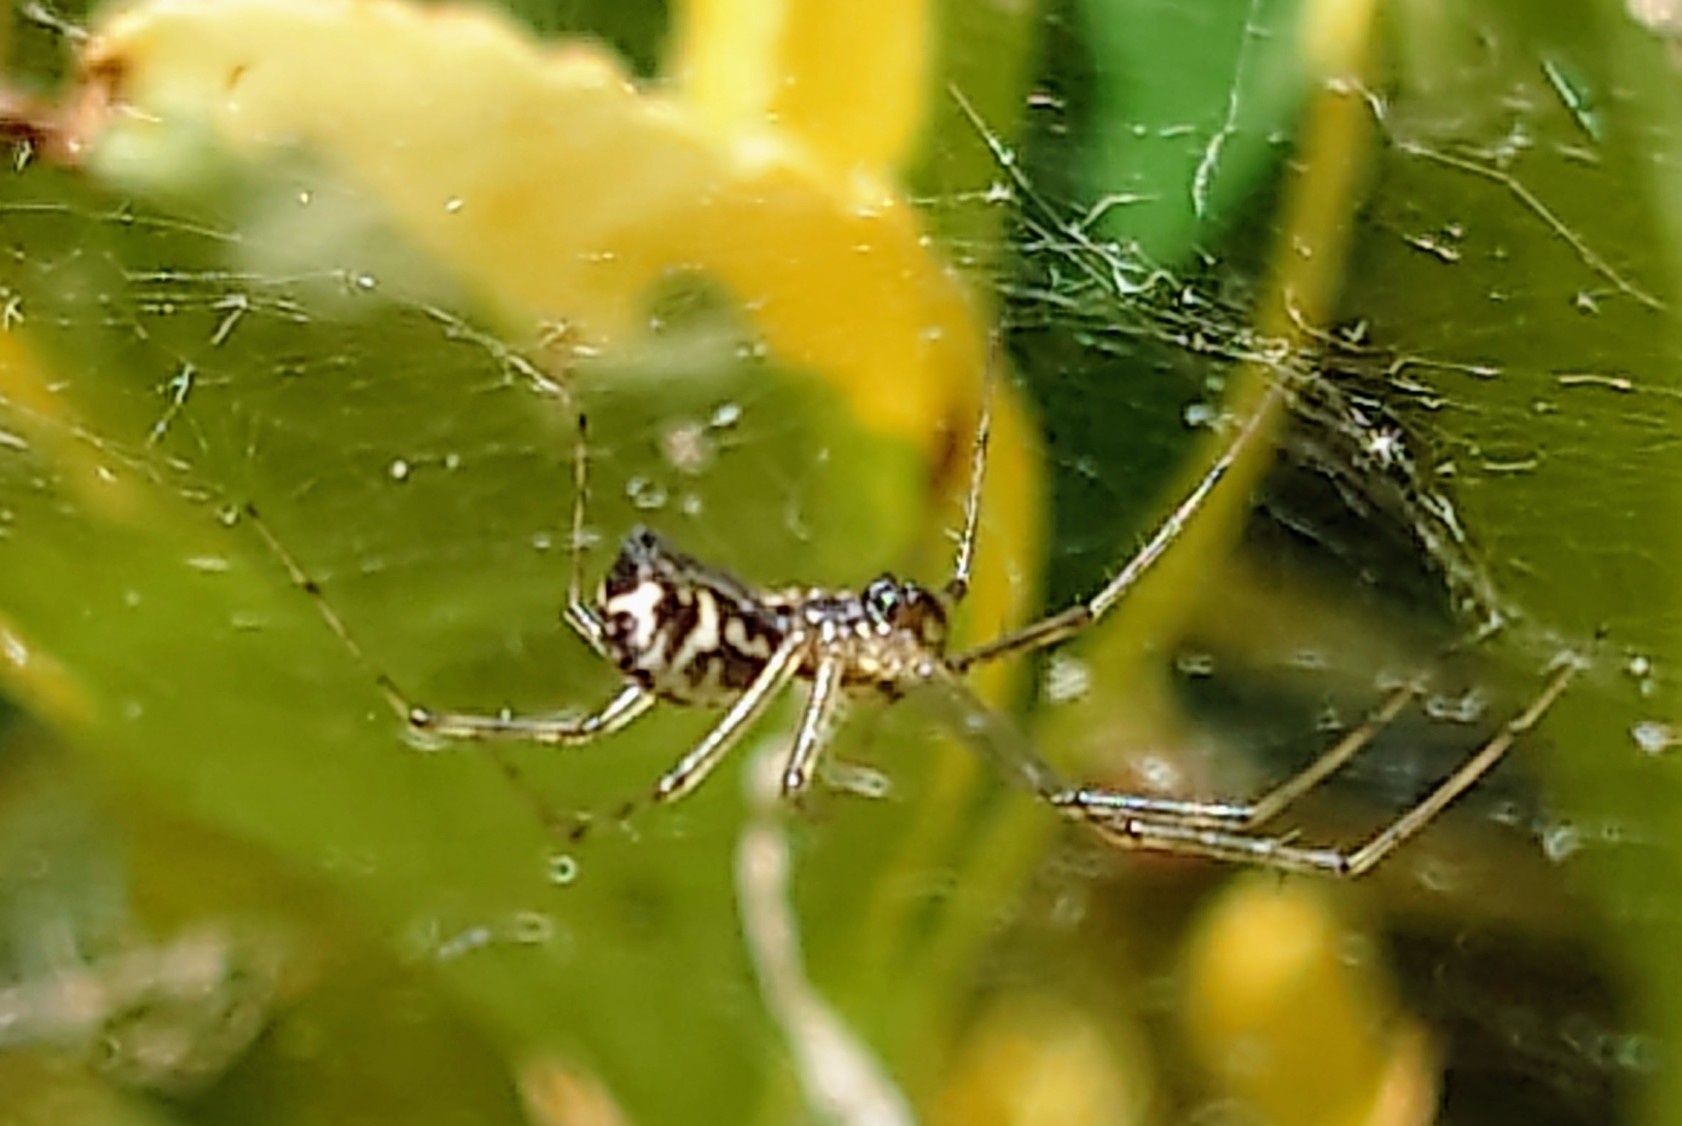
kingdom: Animalia
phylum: Arthropoda
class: Arachnida
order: Araneae
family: Linyphiidae
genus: Linyphia
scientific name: Linyphia triangularis
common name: Money spider
